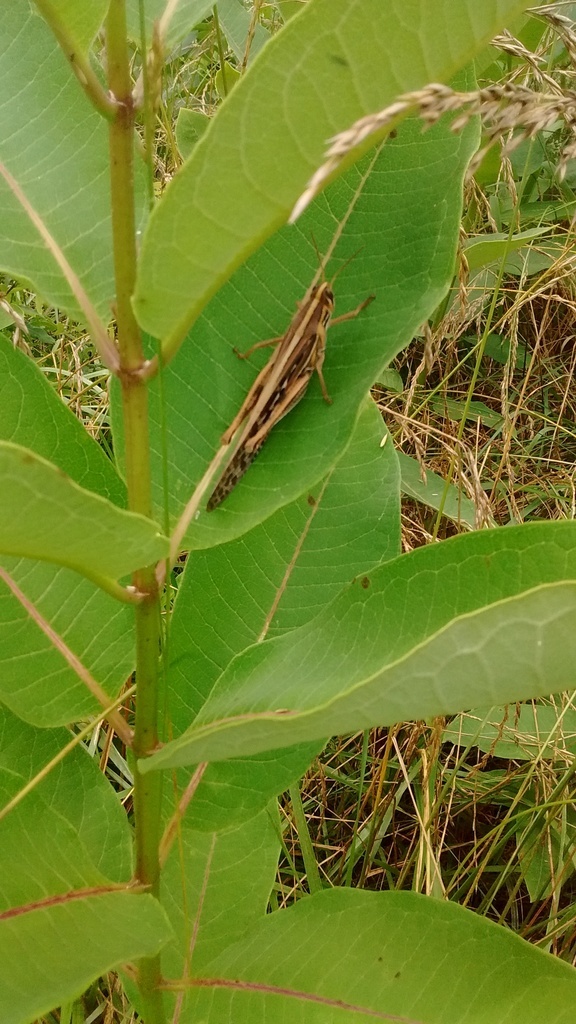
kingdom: Animalia
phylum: Arthropoda
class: Insecta
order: Orthoptera
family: Acrididae
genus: Schistocerca
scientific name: Schistocerca americana
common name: American bird locust
